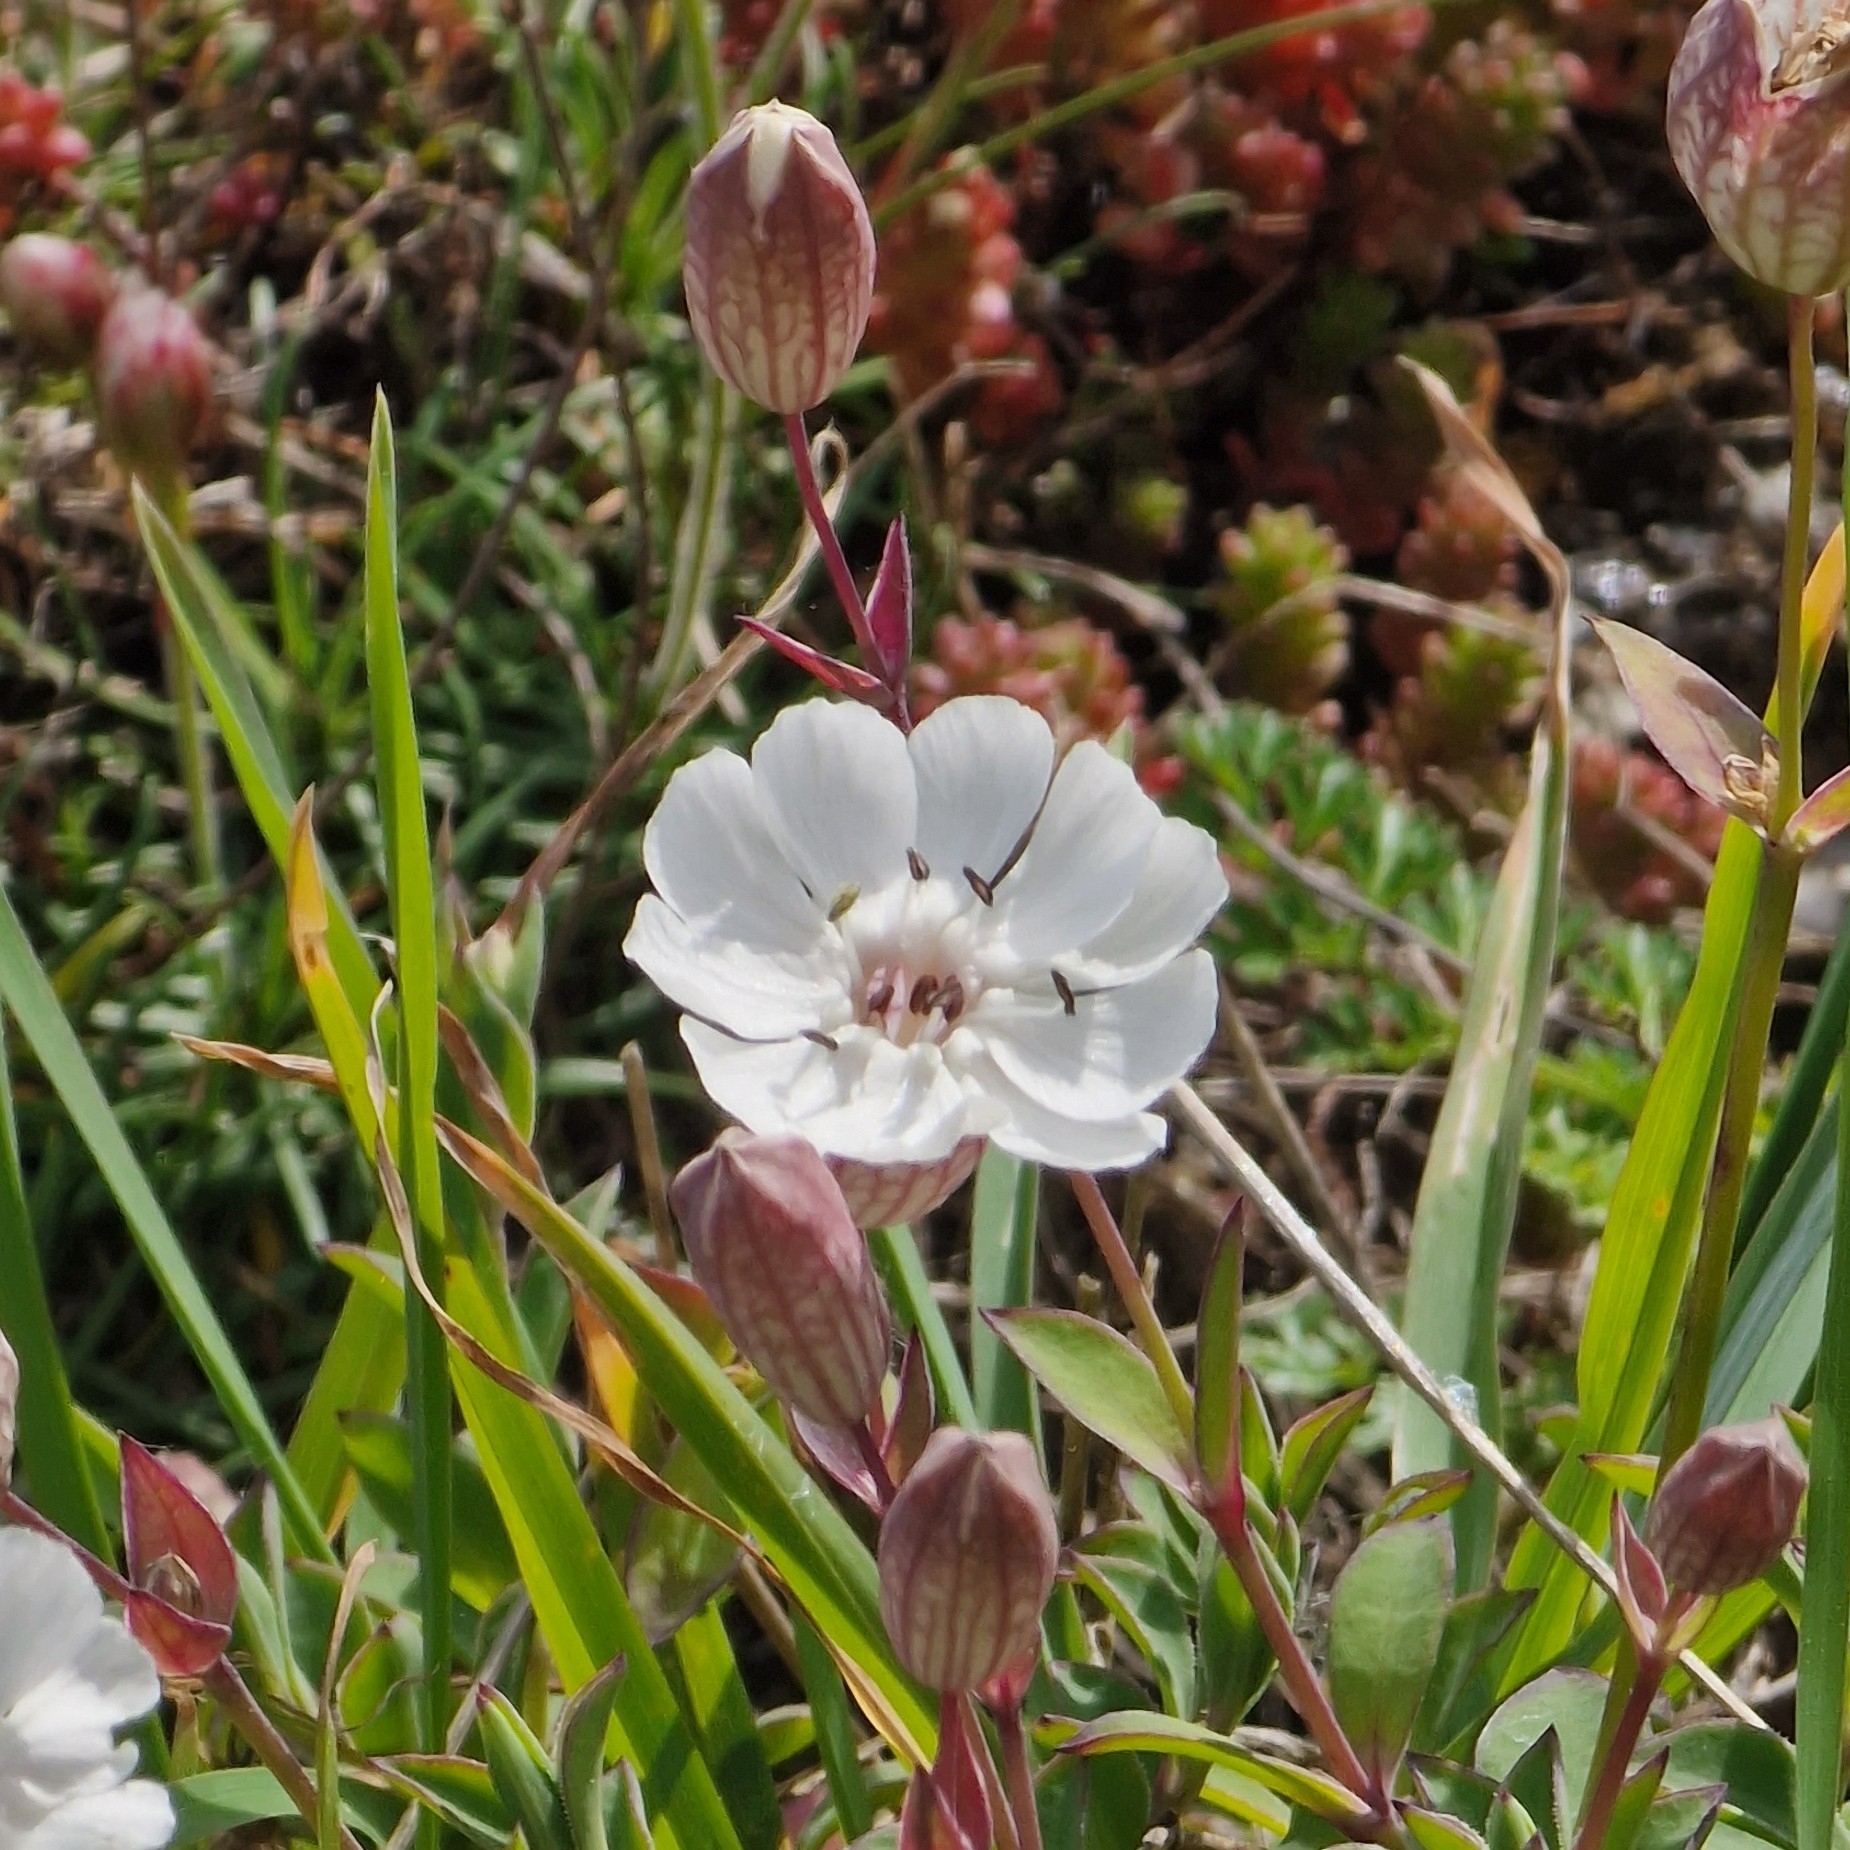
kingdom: Plantae
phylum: Tracheophyta
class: Magnoliopsida
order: Caryophyllales
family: Caryophyllaceae
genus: Silene
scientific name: Silene uniflora
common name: Sea campion
